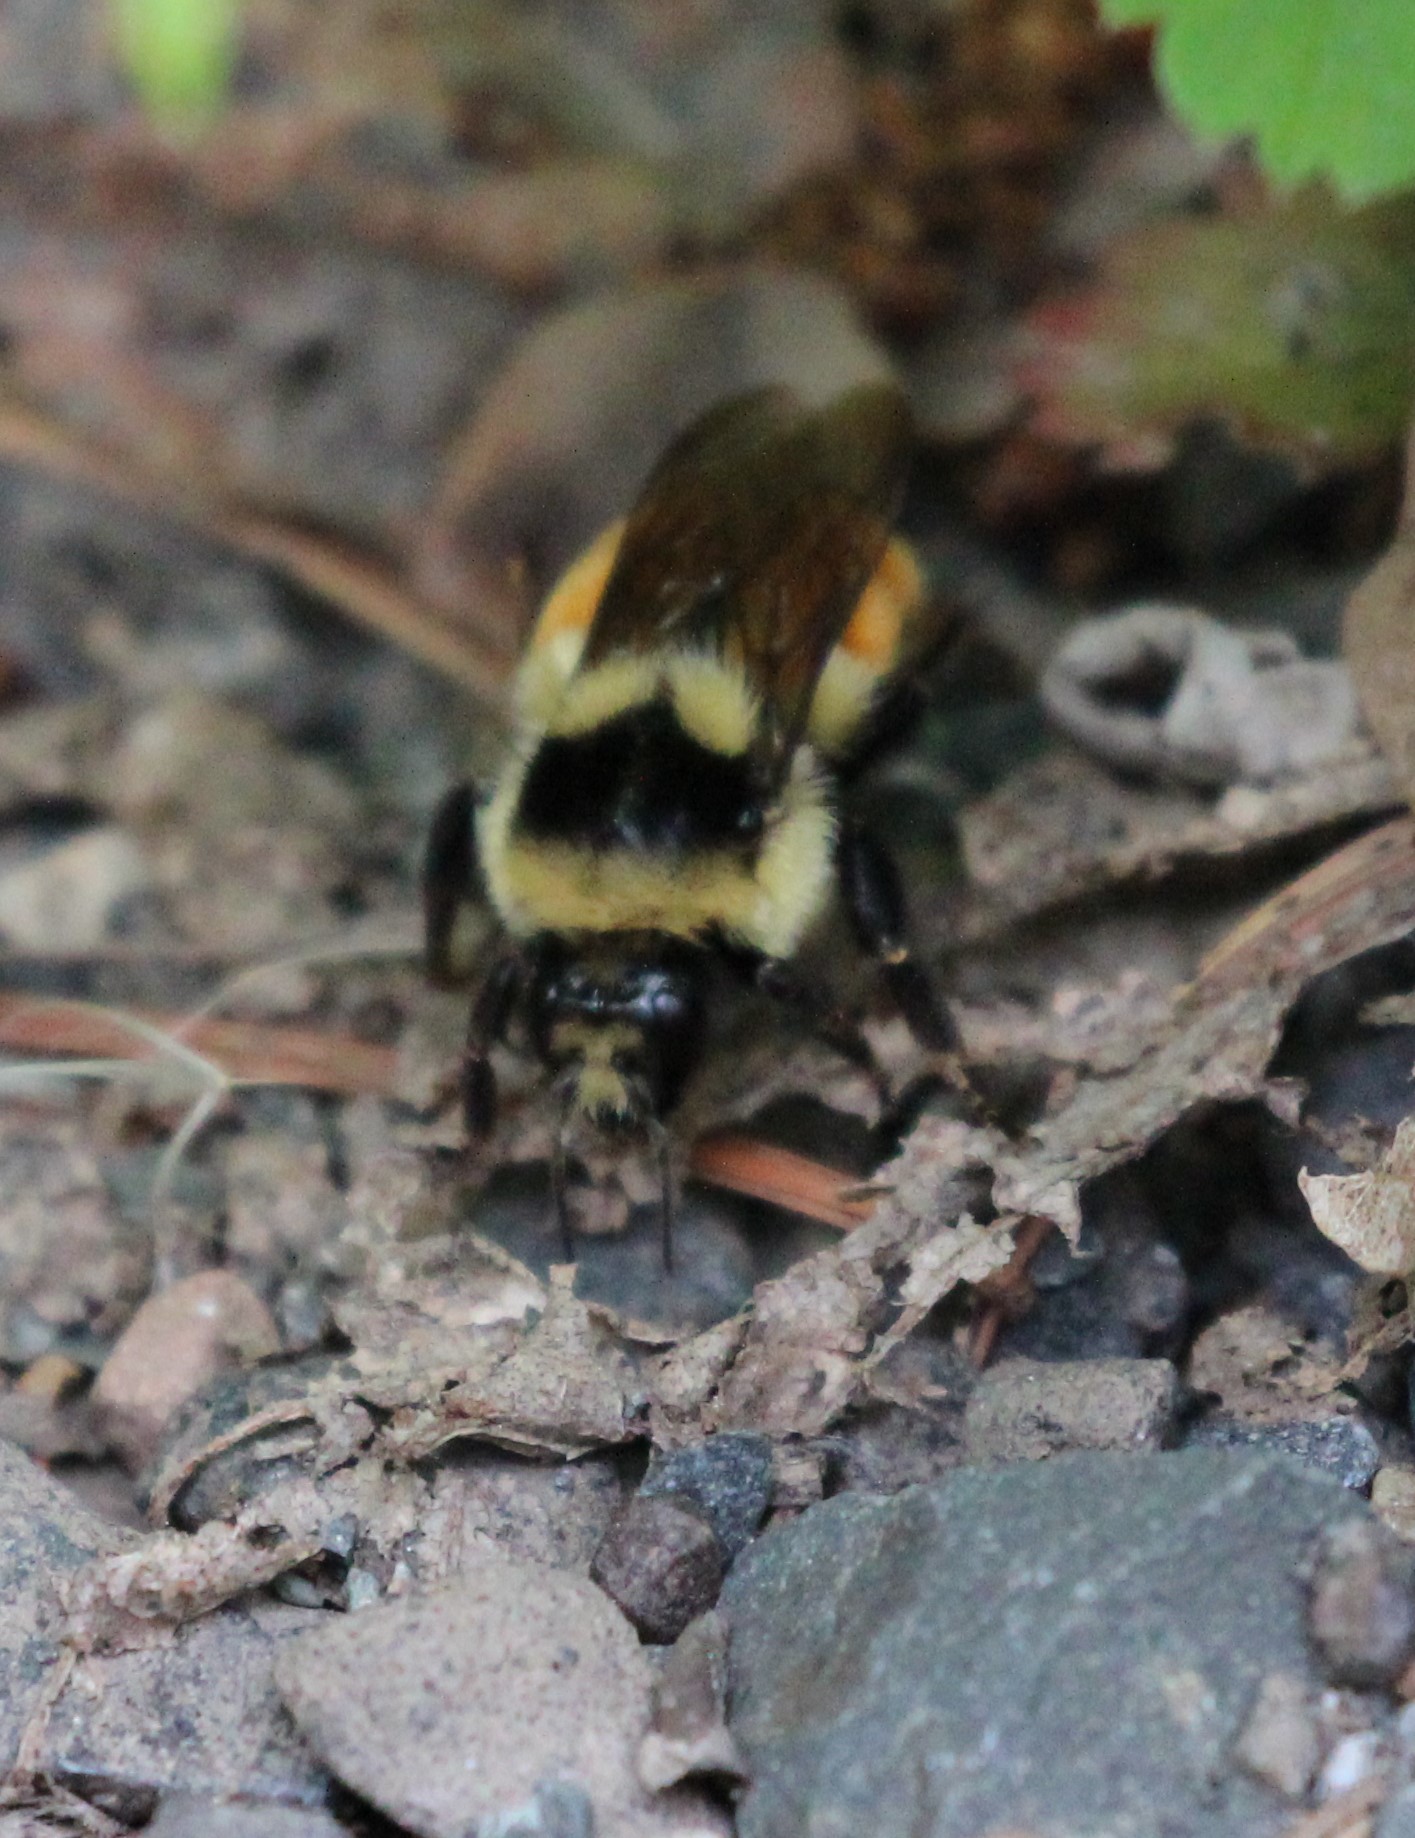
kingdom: Animalia
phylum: Arthropoda
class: Insecta
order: Hymenoptera
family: Apidae
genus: Bombus
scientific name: Bombus ternarius
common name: Tri-colored bumble bee
